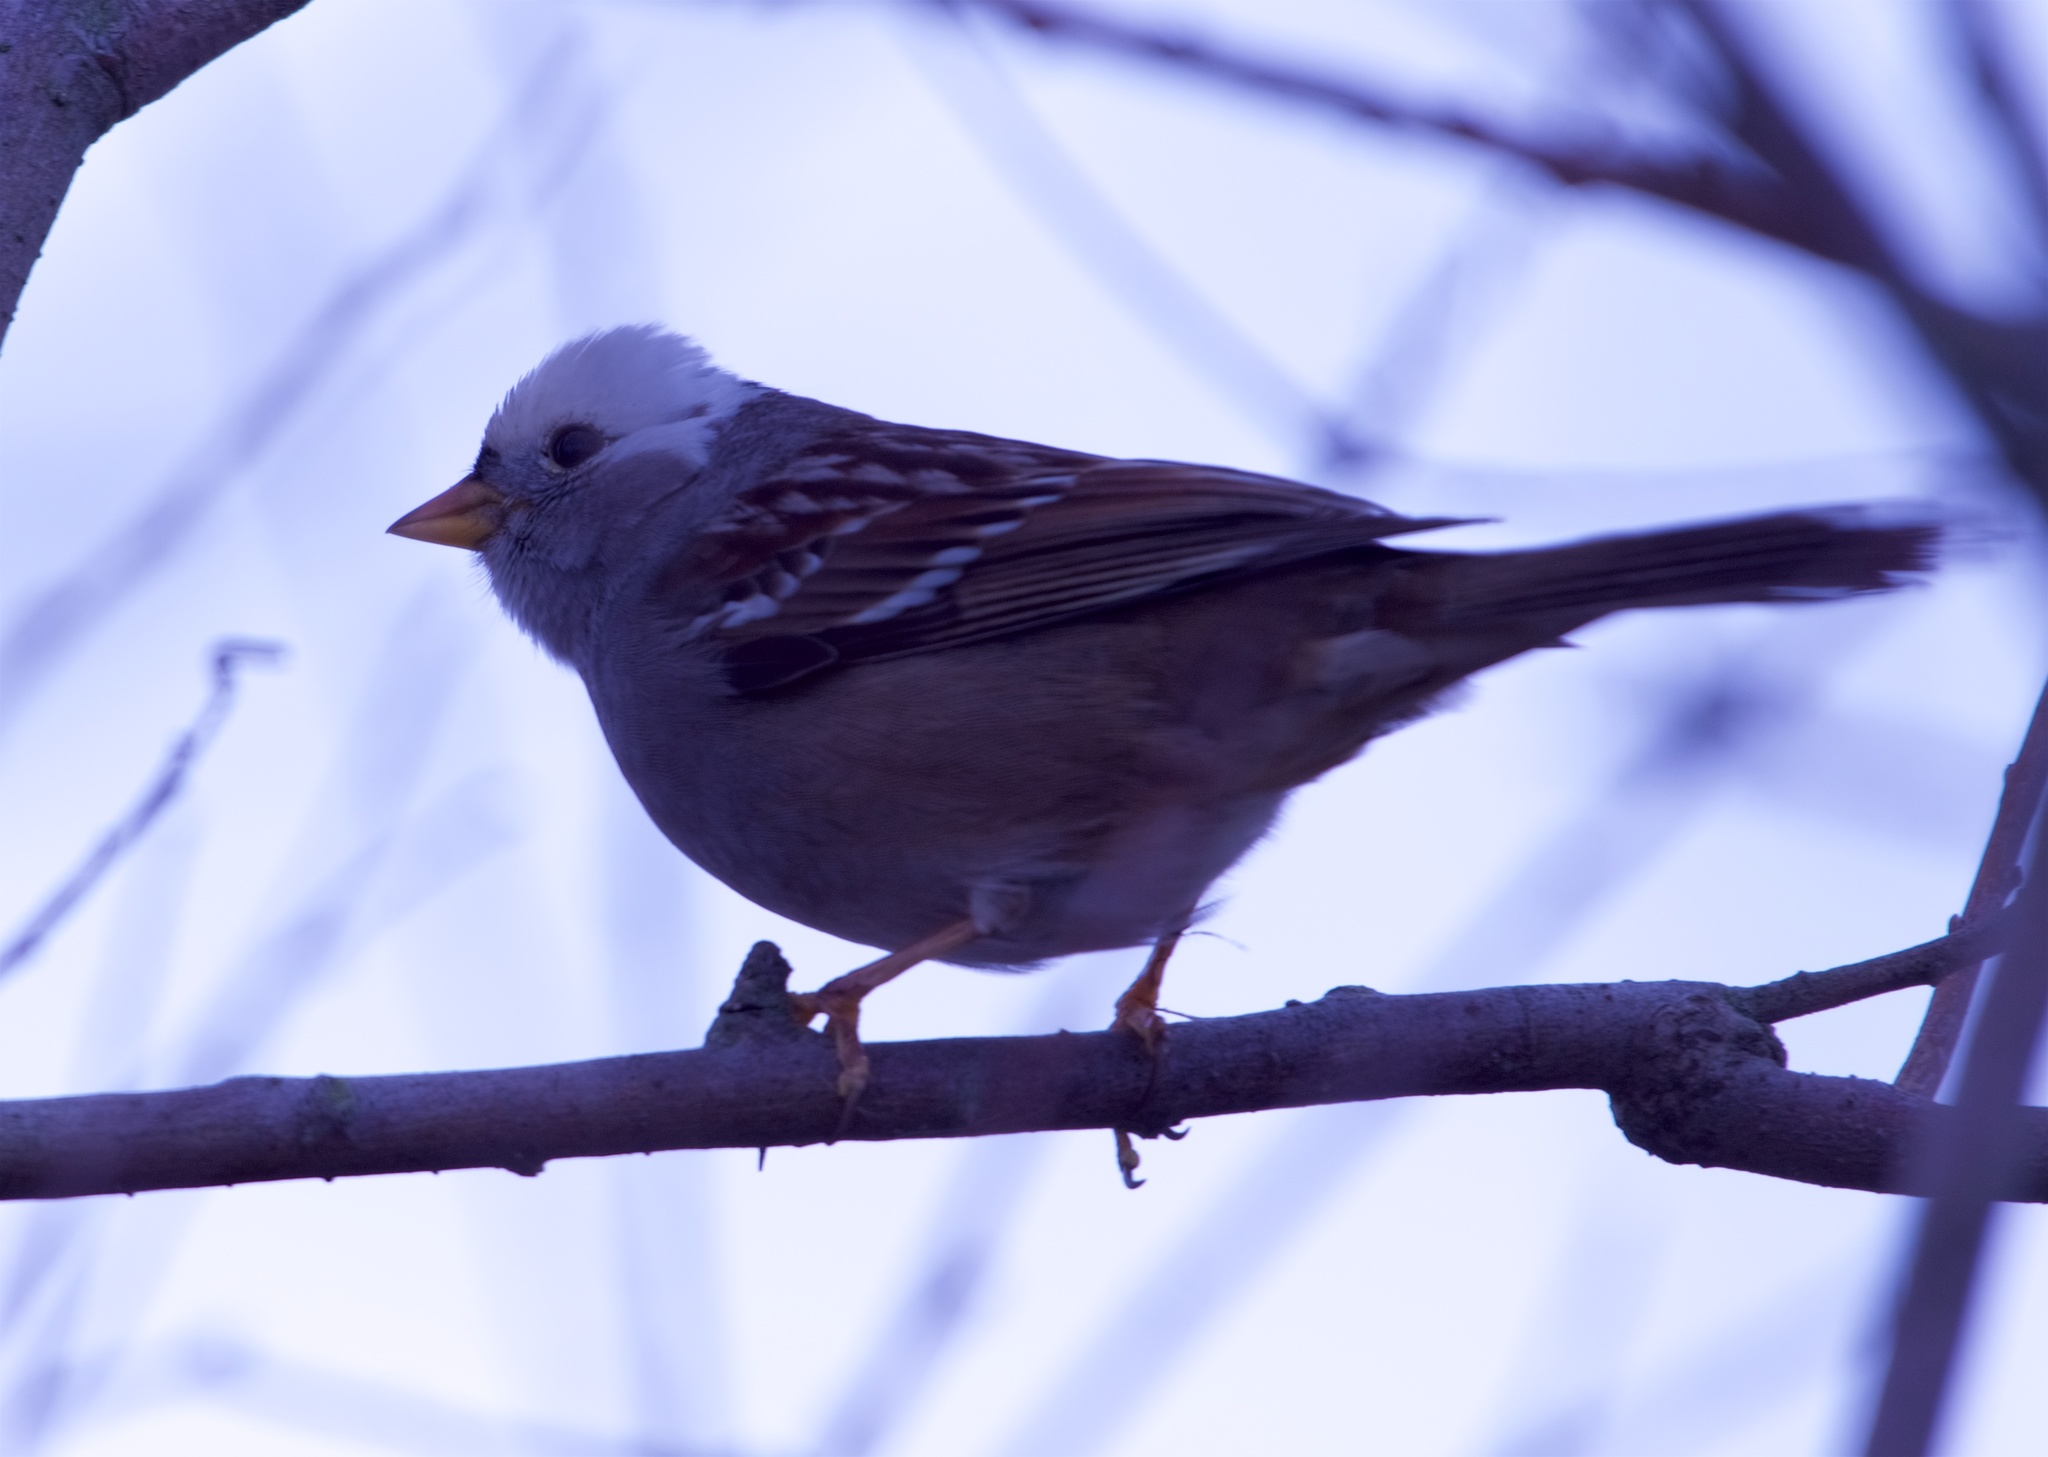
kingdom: Animalia
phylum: Chordata
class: Aves
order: Passeriformes
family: Passerellidae
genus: Zonotrichia
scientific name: Zonotrichia leucophrys
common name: White-crowned sparrow
